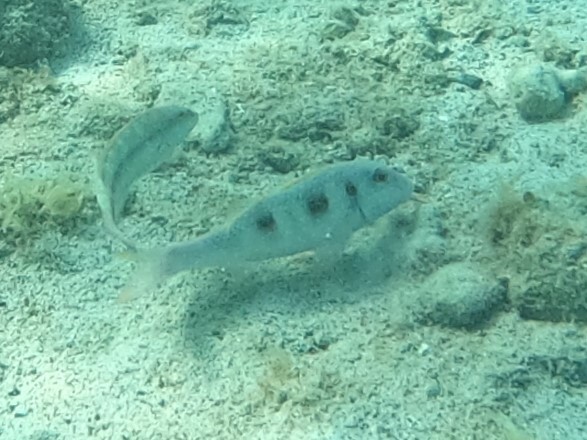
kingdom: Animalia
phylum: Chordata
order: Perciformes
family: Mullidae
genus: Pseudupeneus
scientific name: Pseudupeneus maculatus
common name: Spotted goatfish
